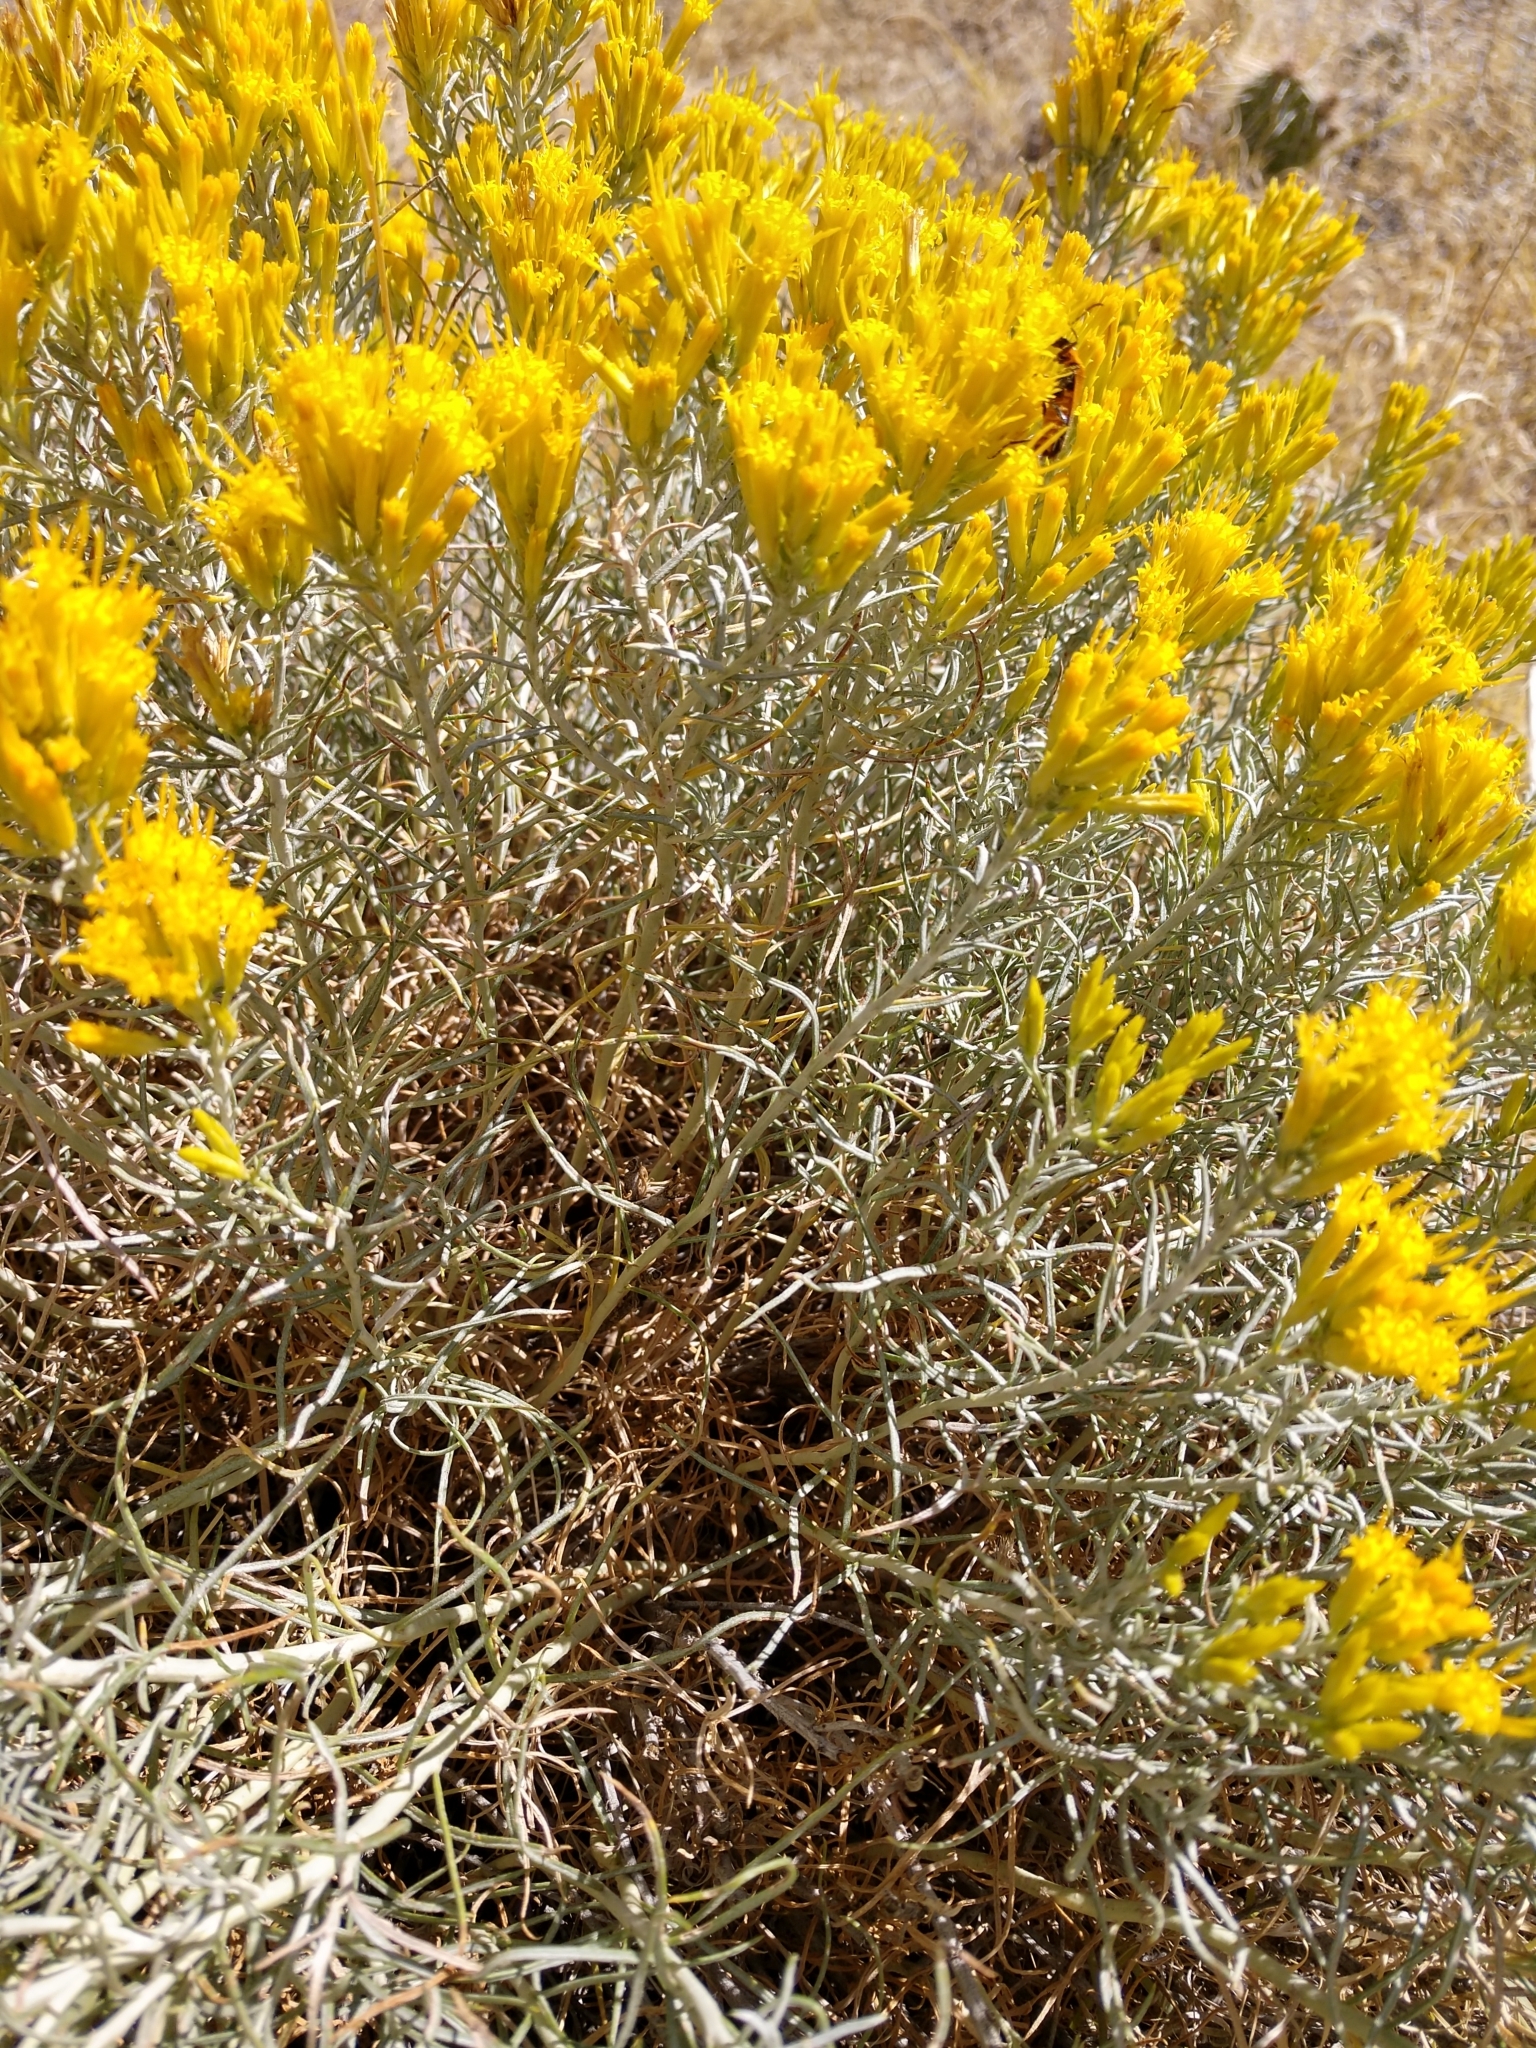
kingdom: Plantae
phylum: Tracheophyta
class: Magnoliopsida
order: Asterales
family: Asteraceae
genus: Ericameria
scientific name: Ericameria nauseosa
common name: Rubber rabbitbrush
